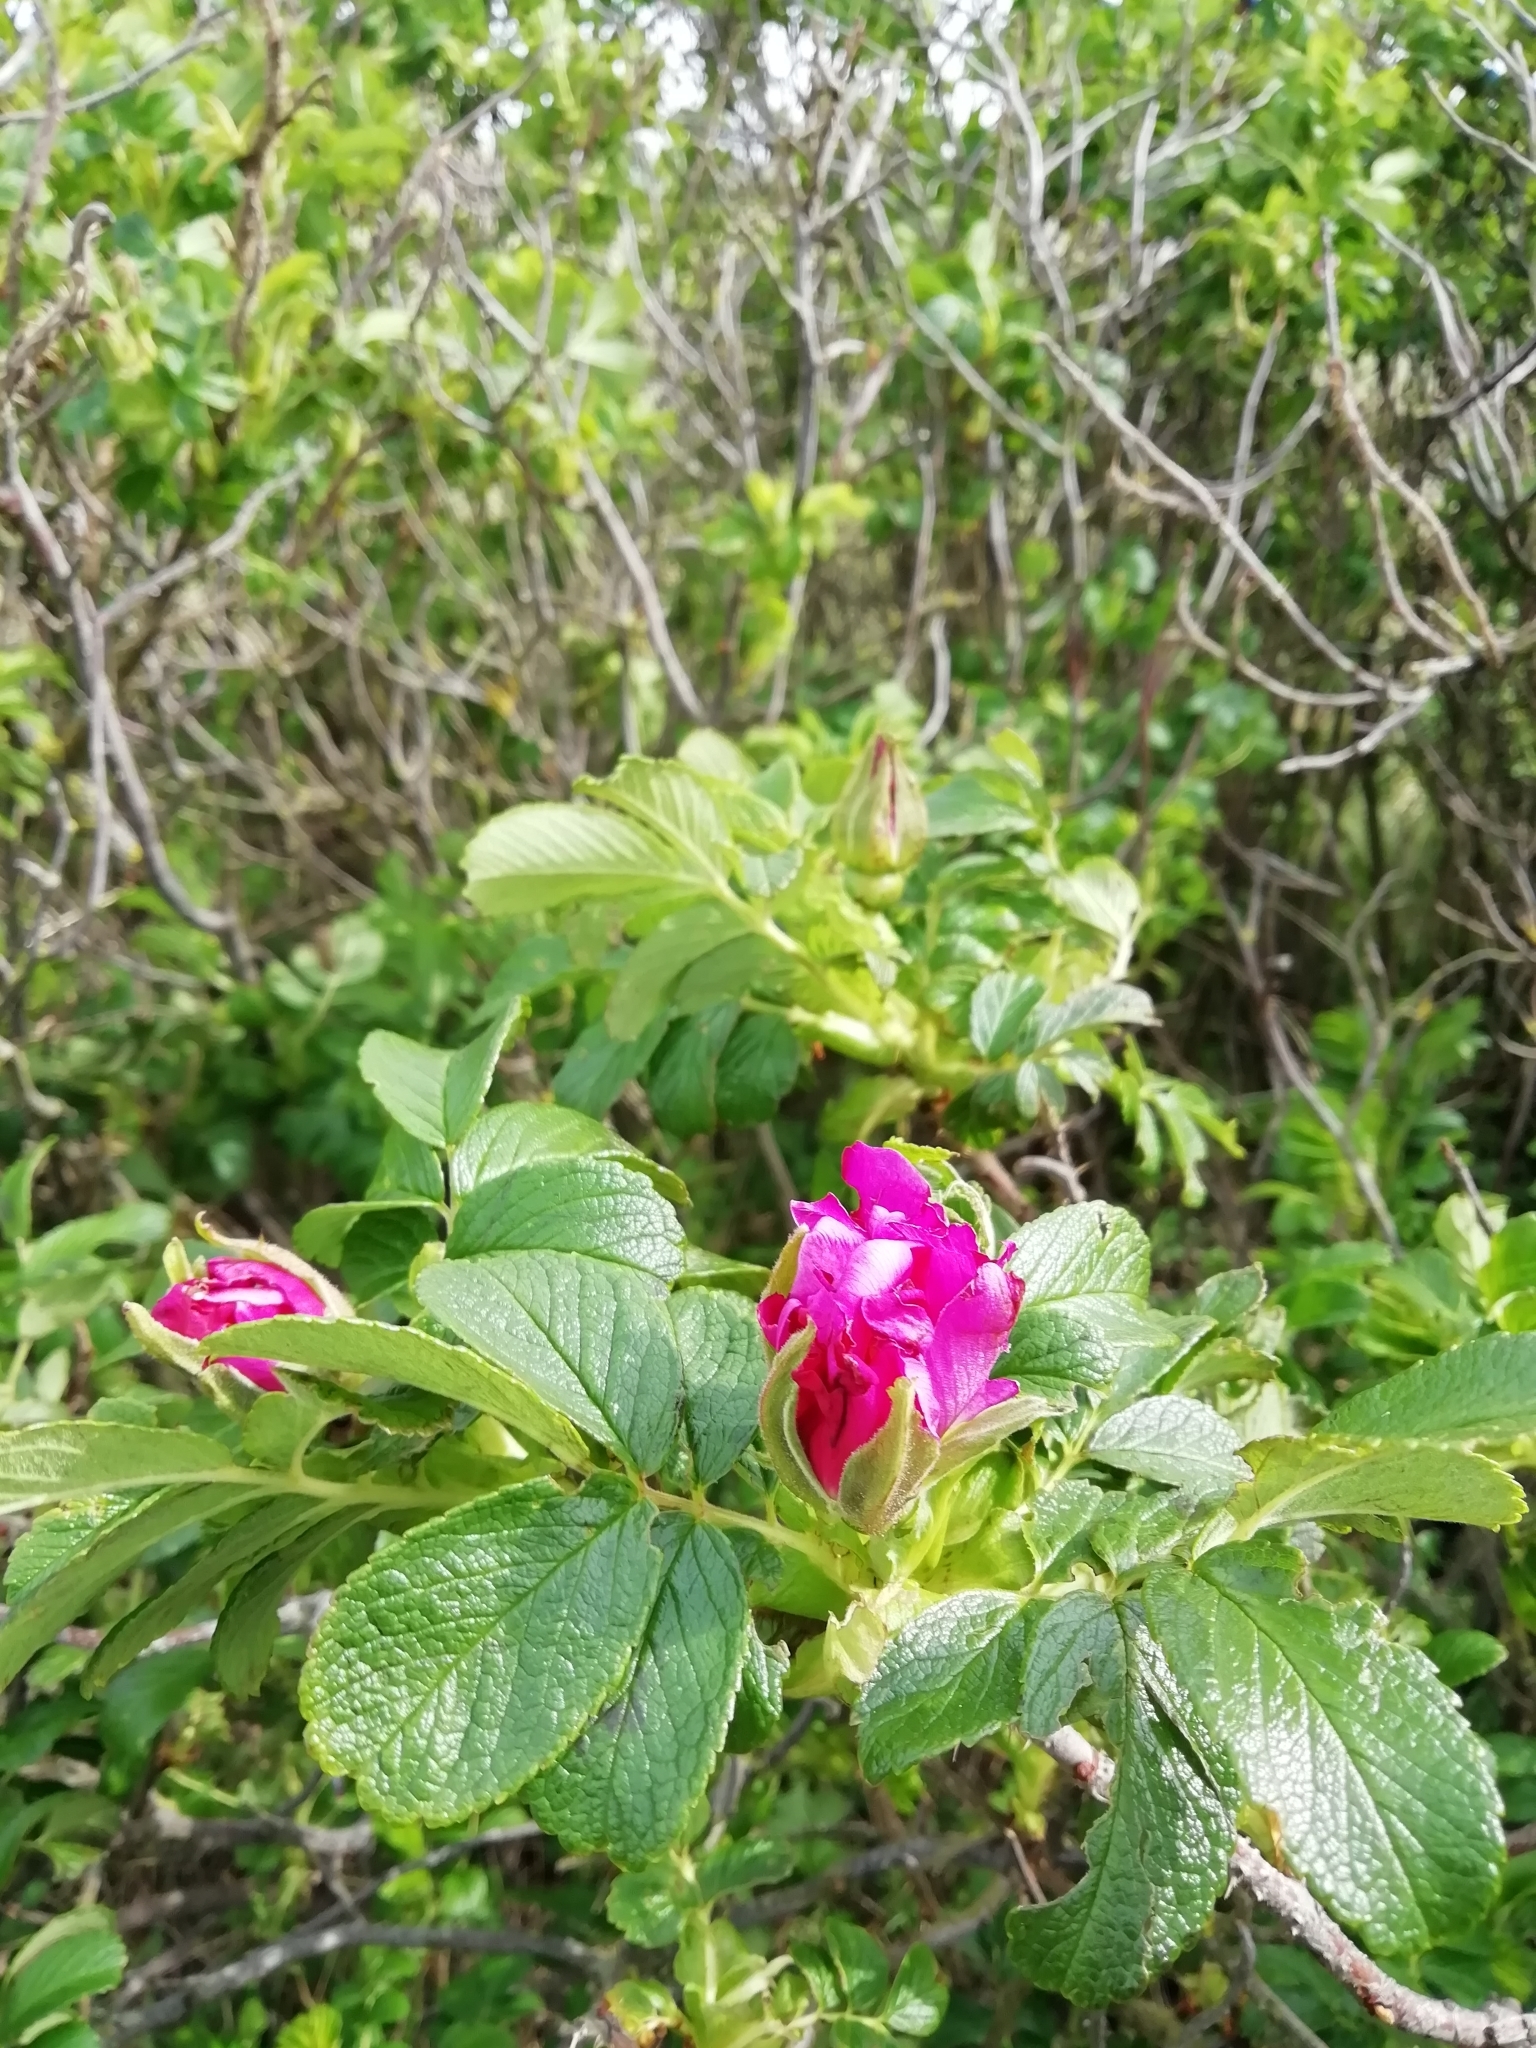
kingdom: Plantae
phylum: Tracheophyta
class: Magnoliopsida
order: Rosales
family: Rosaceae
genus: Rosa
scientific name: Rosa rugosa
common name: Japanese rose
